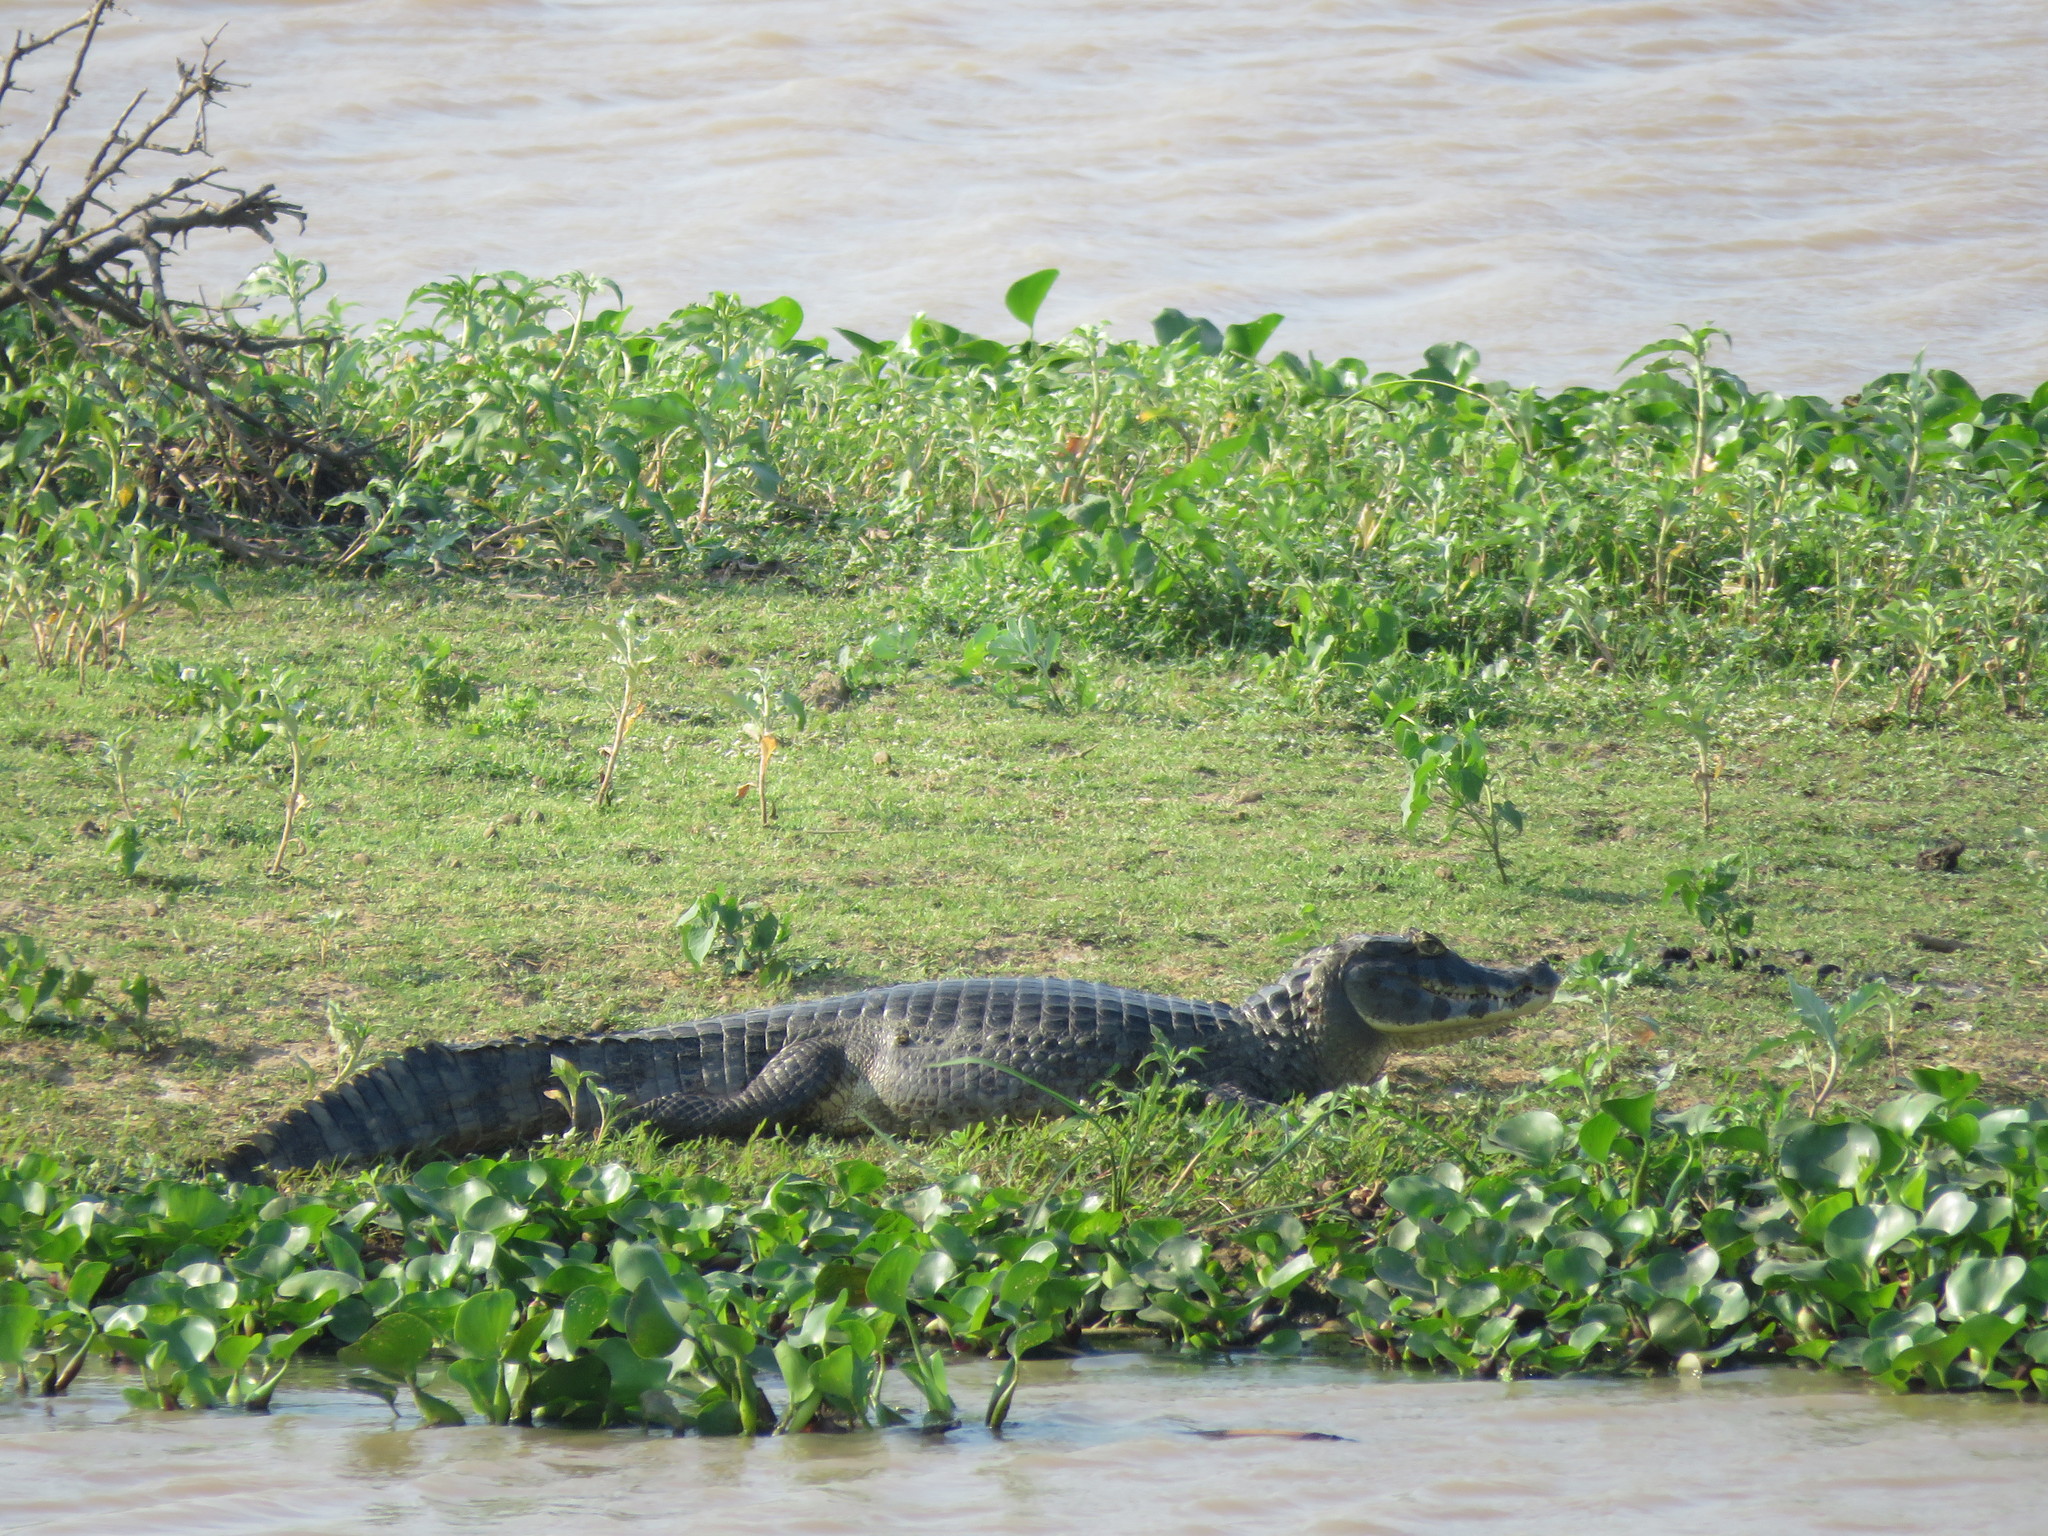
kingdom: Animalia
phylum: Chordata
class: Crocodylia
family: Alligatoridae
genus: Caiman
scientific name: Caiman yacare
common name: Yacare caiman
